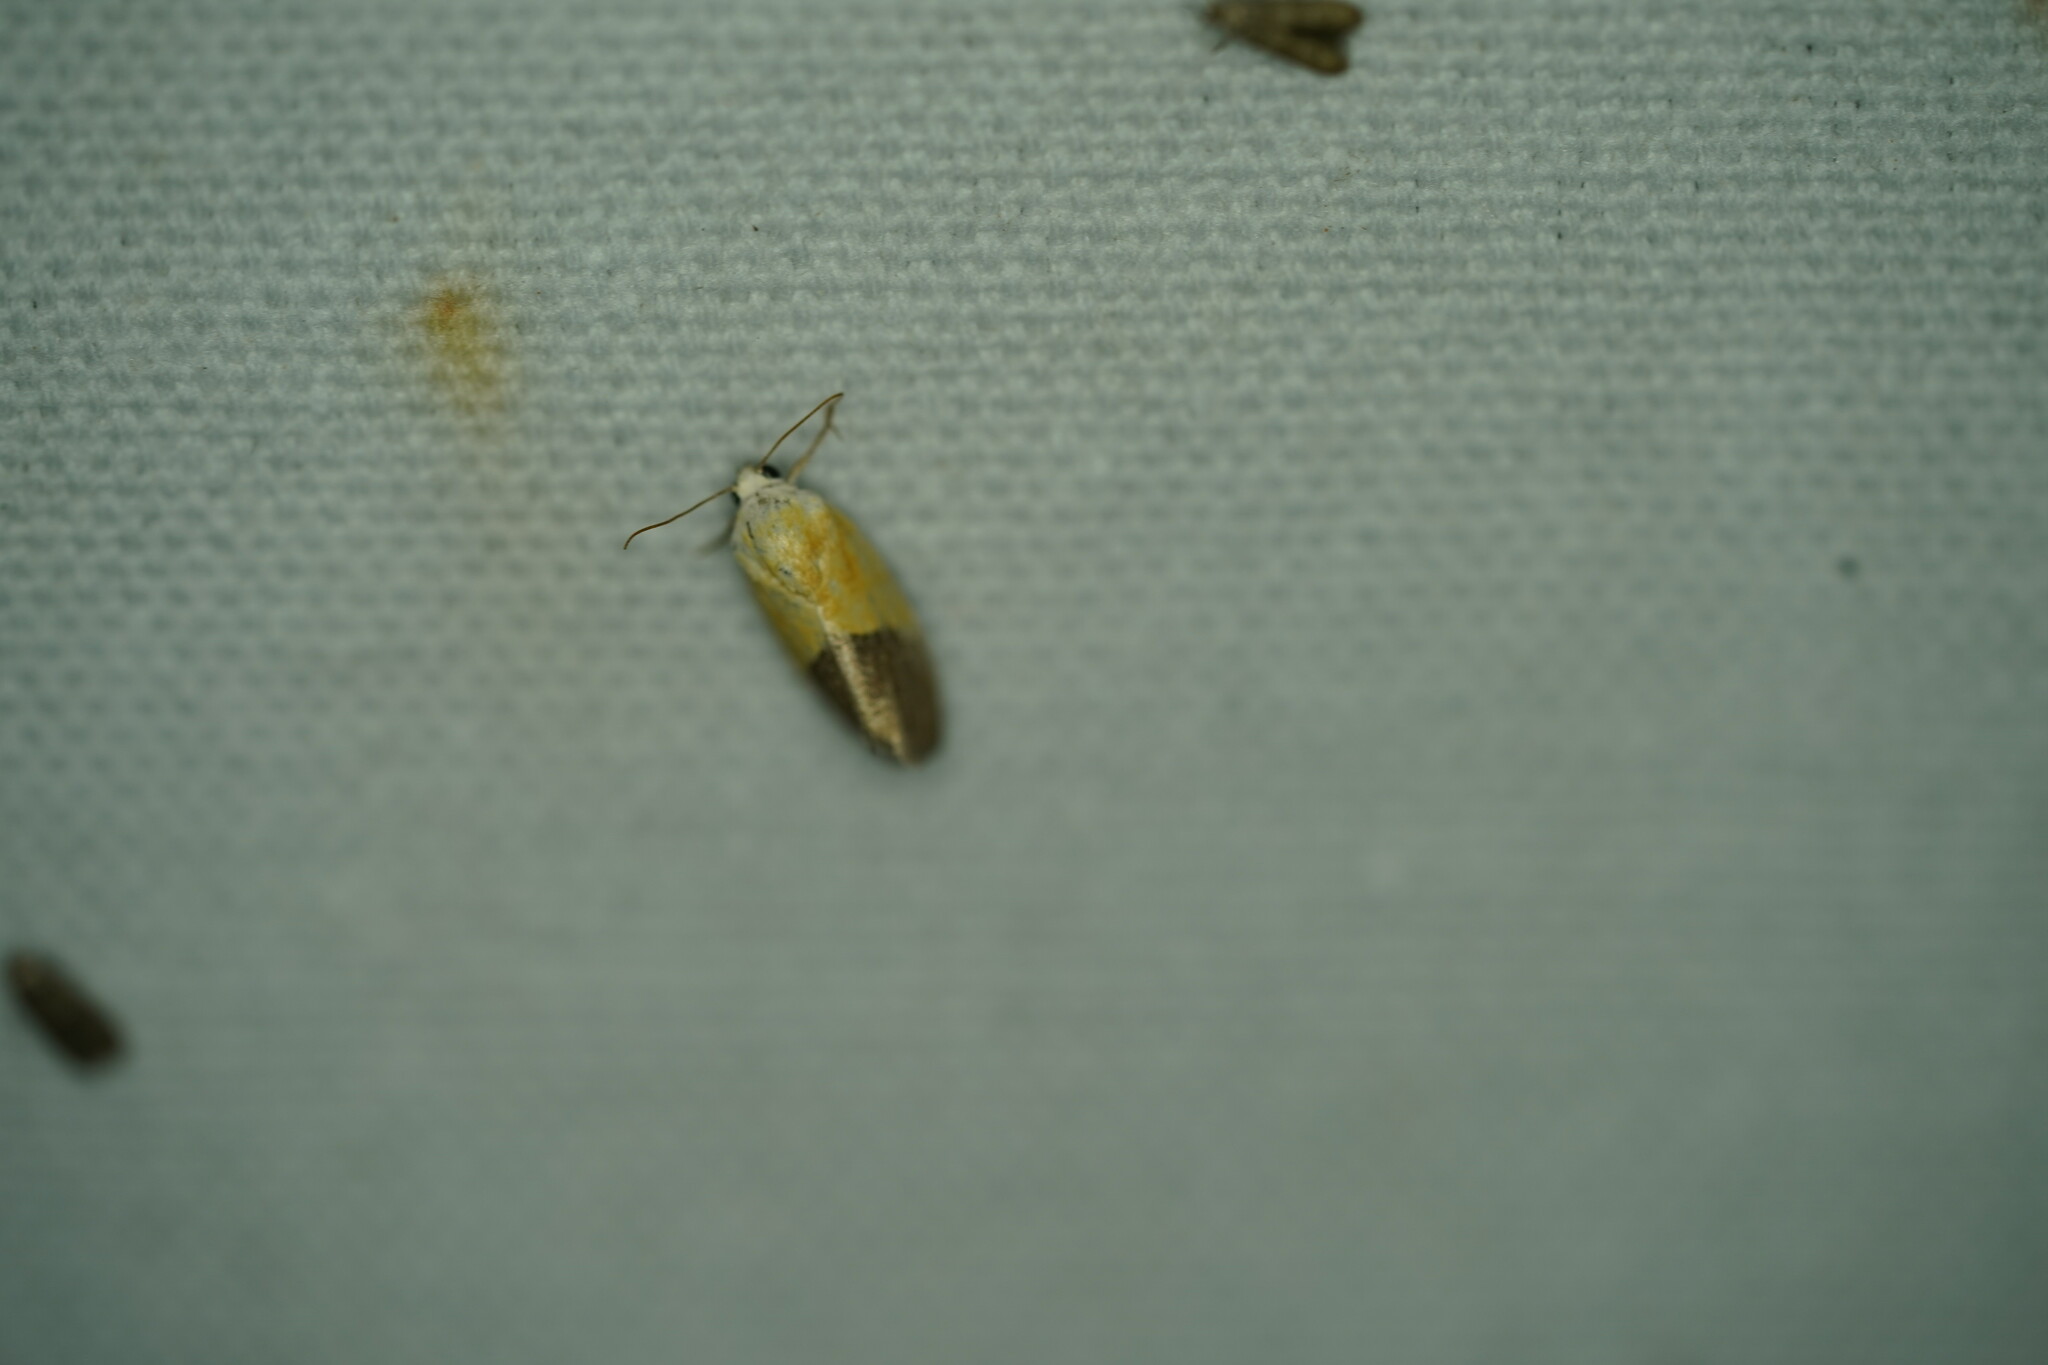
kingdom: Animalia
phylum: Arthropoda
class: Insecta
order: Lepidoptera
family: Noctuidae
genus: Acontia
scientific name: Acontia semiflava
